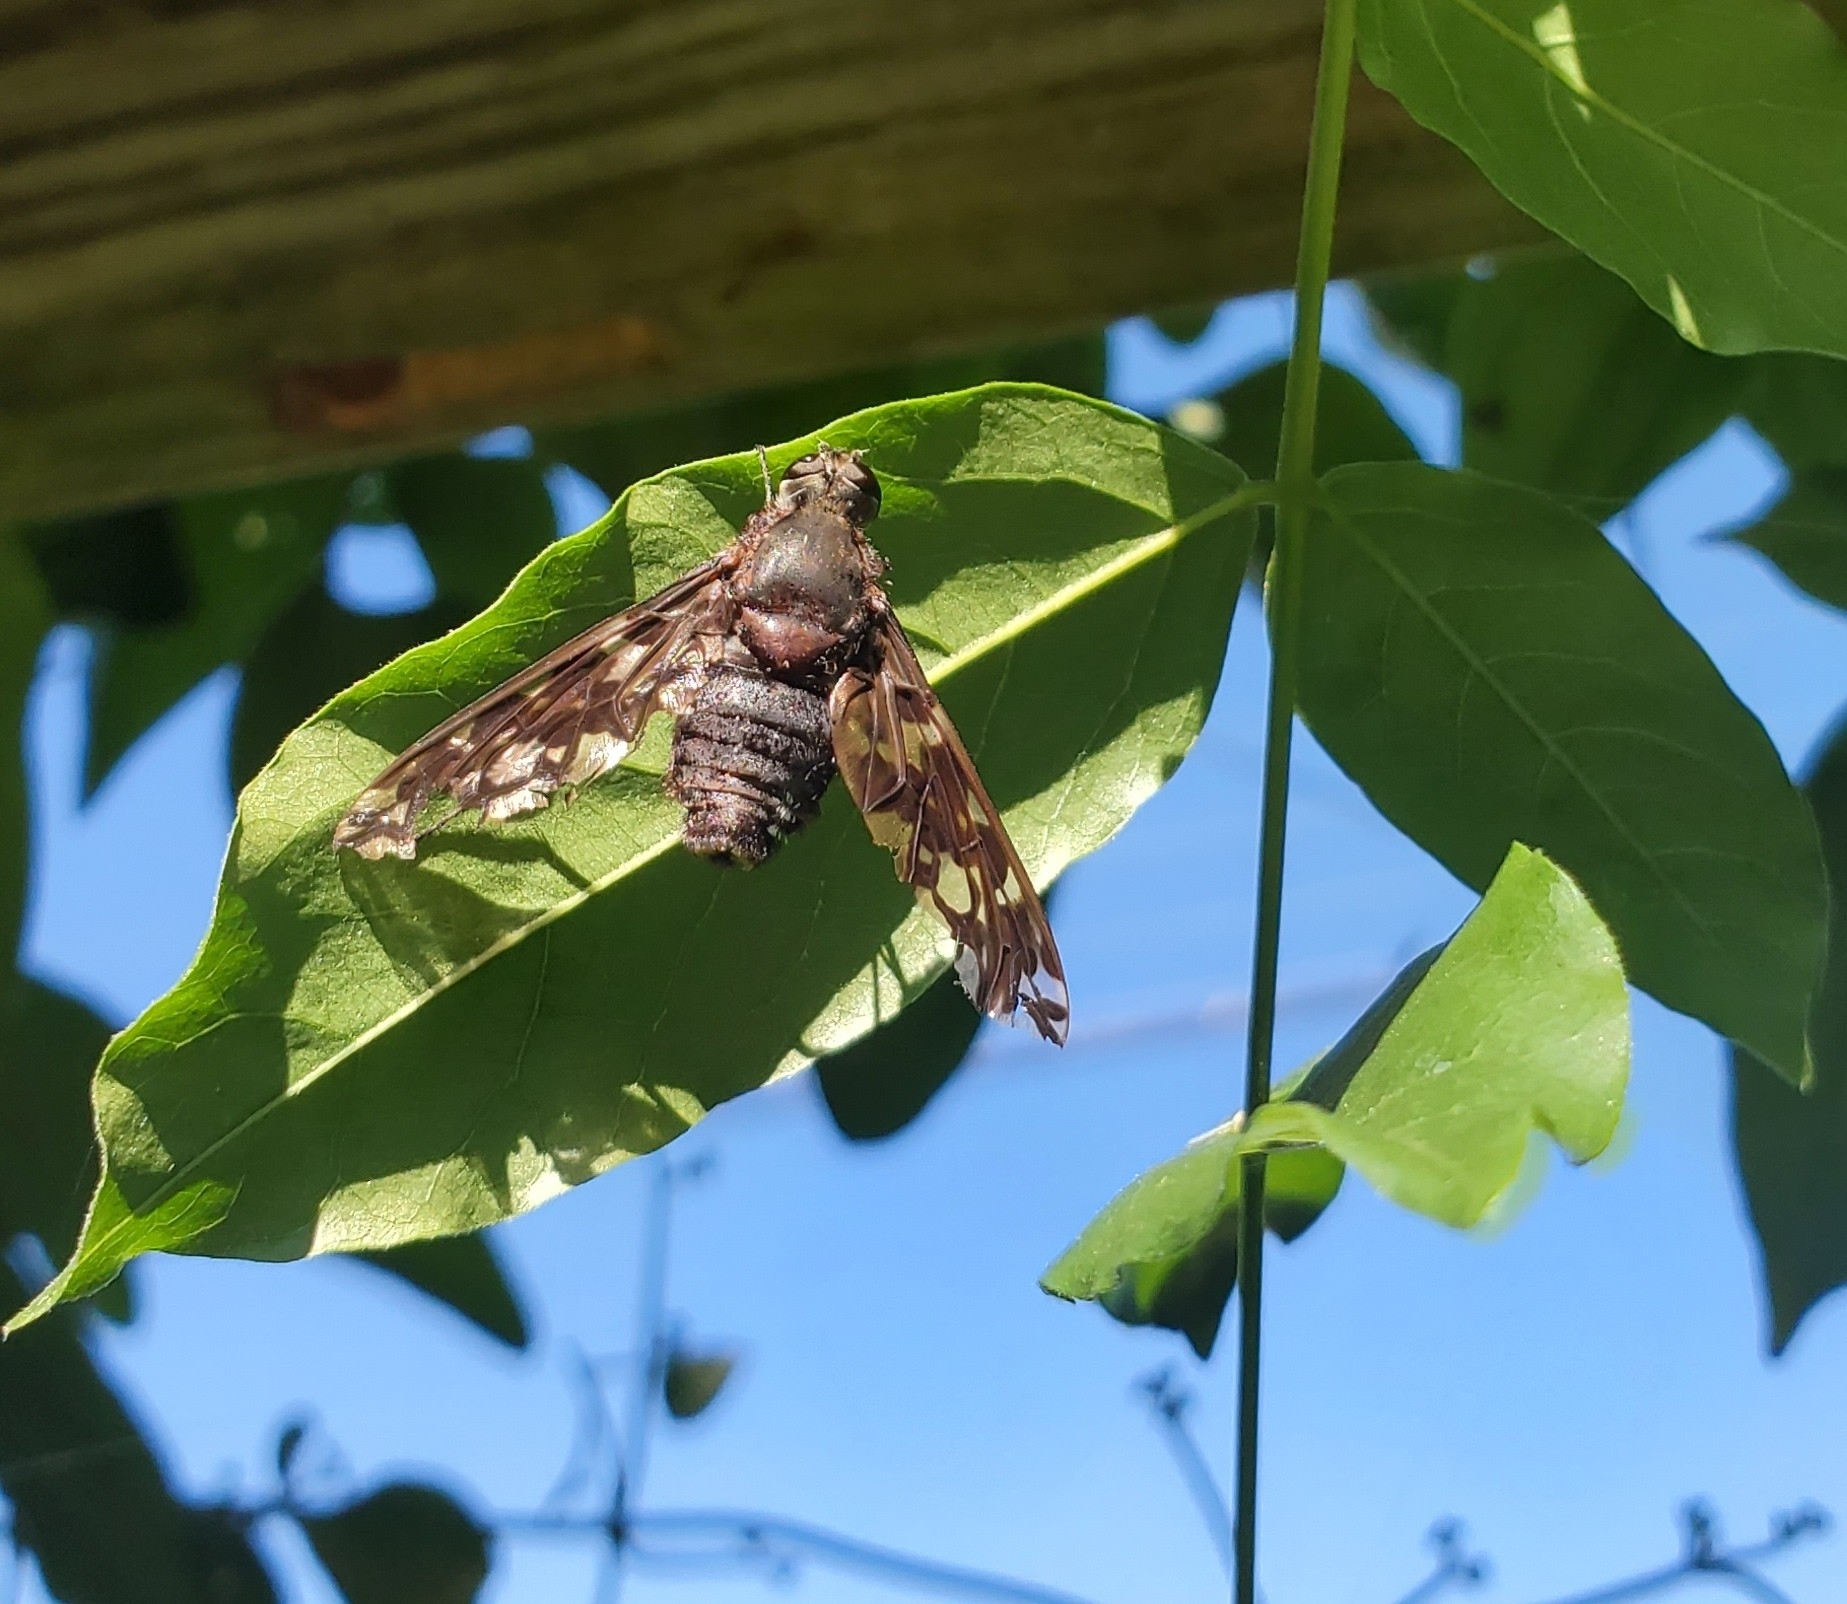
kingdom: Animalia
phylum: Arthropoda
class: Insecta
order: Diptera
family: Bombyliidae
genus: Xenox
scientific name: Xenox tigrinus
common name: Tiger bee fly
